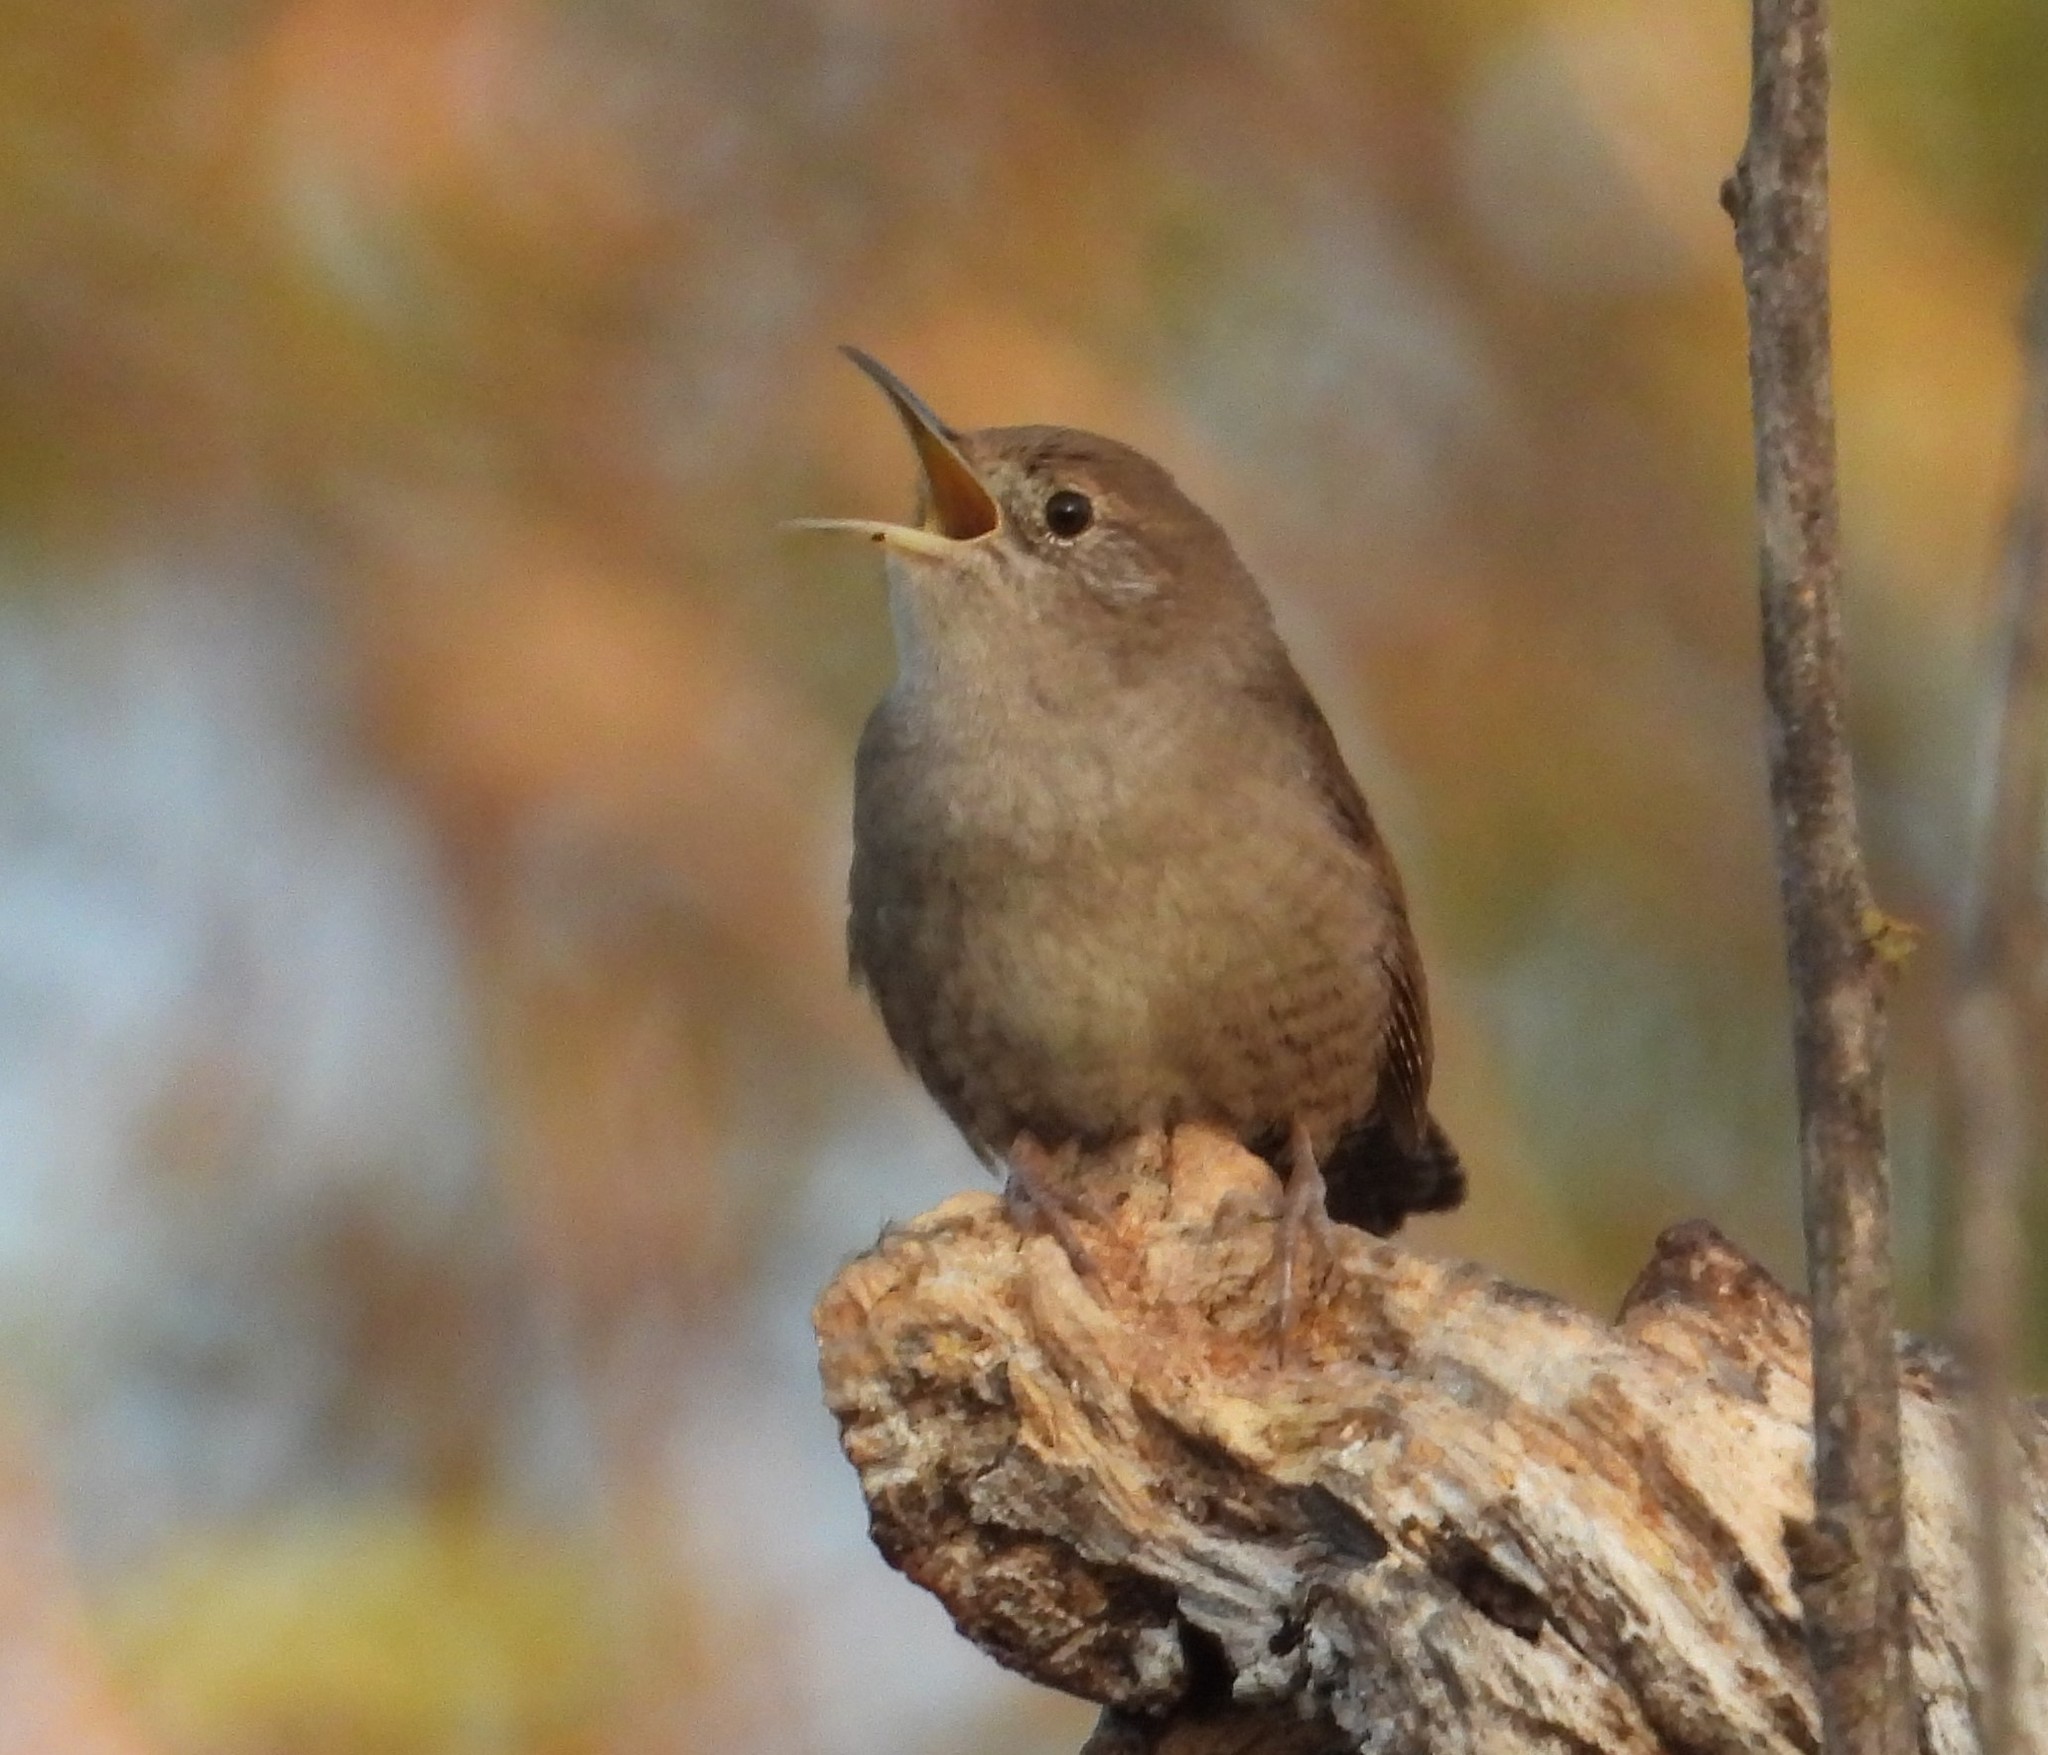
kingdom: Animalia
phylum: Chordata
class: Aves
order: Passeriformes
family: Troglodytidae
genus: Troglodytes
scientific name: Troglodytes aedon
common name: House wren
